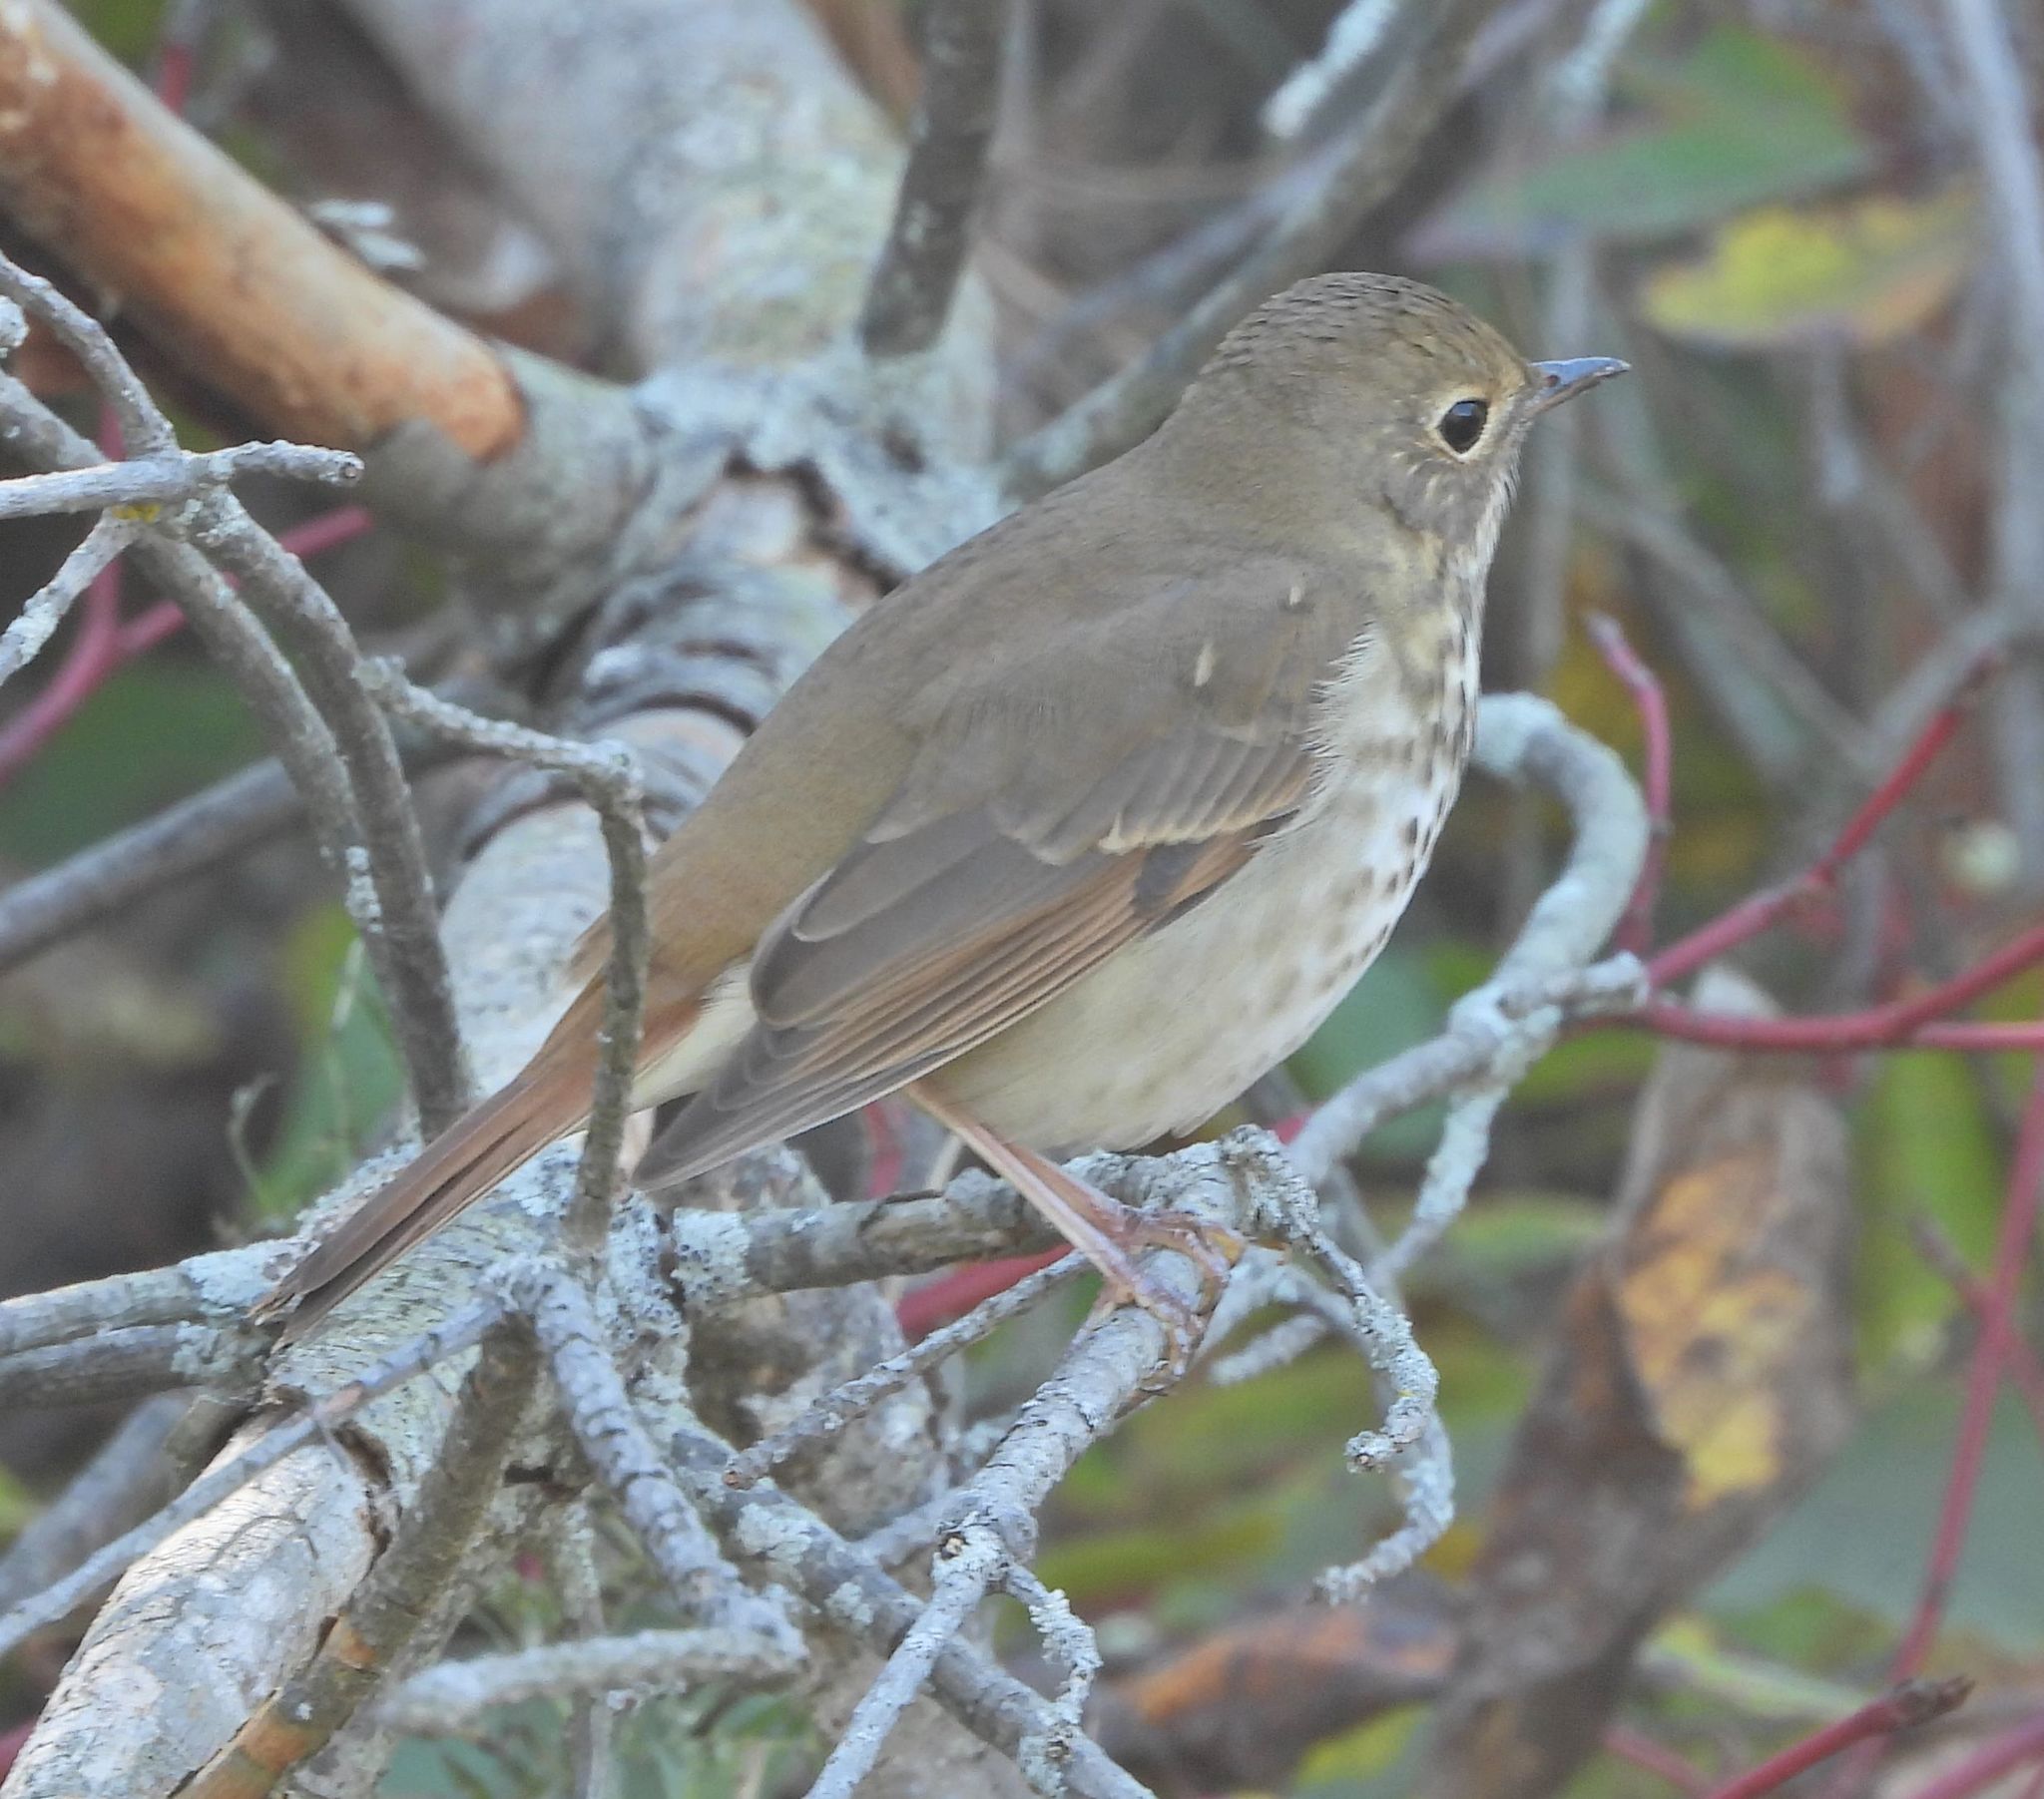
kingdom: Animalia
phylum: Chordata
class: Aves
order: Passeriformes
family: Turdidae
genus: Catharus
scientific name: Catharus guttatus
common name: Hermit thrush
